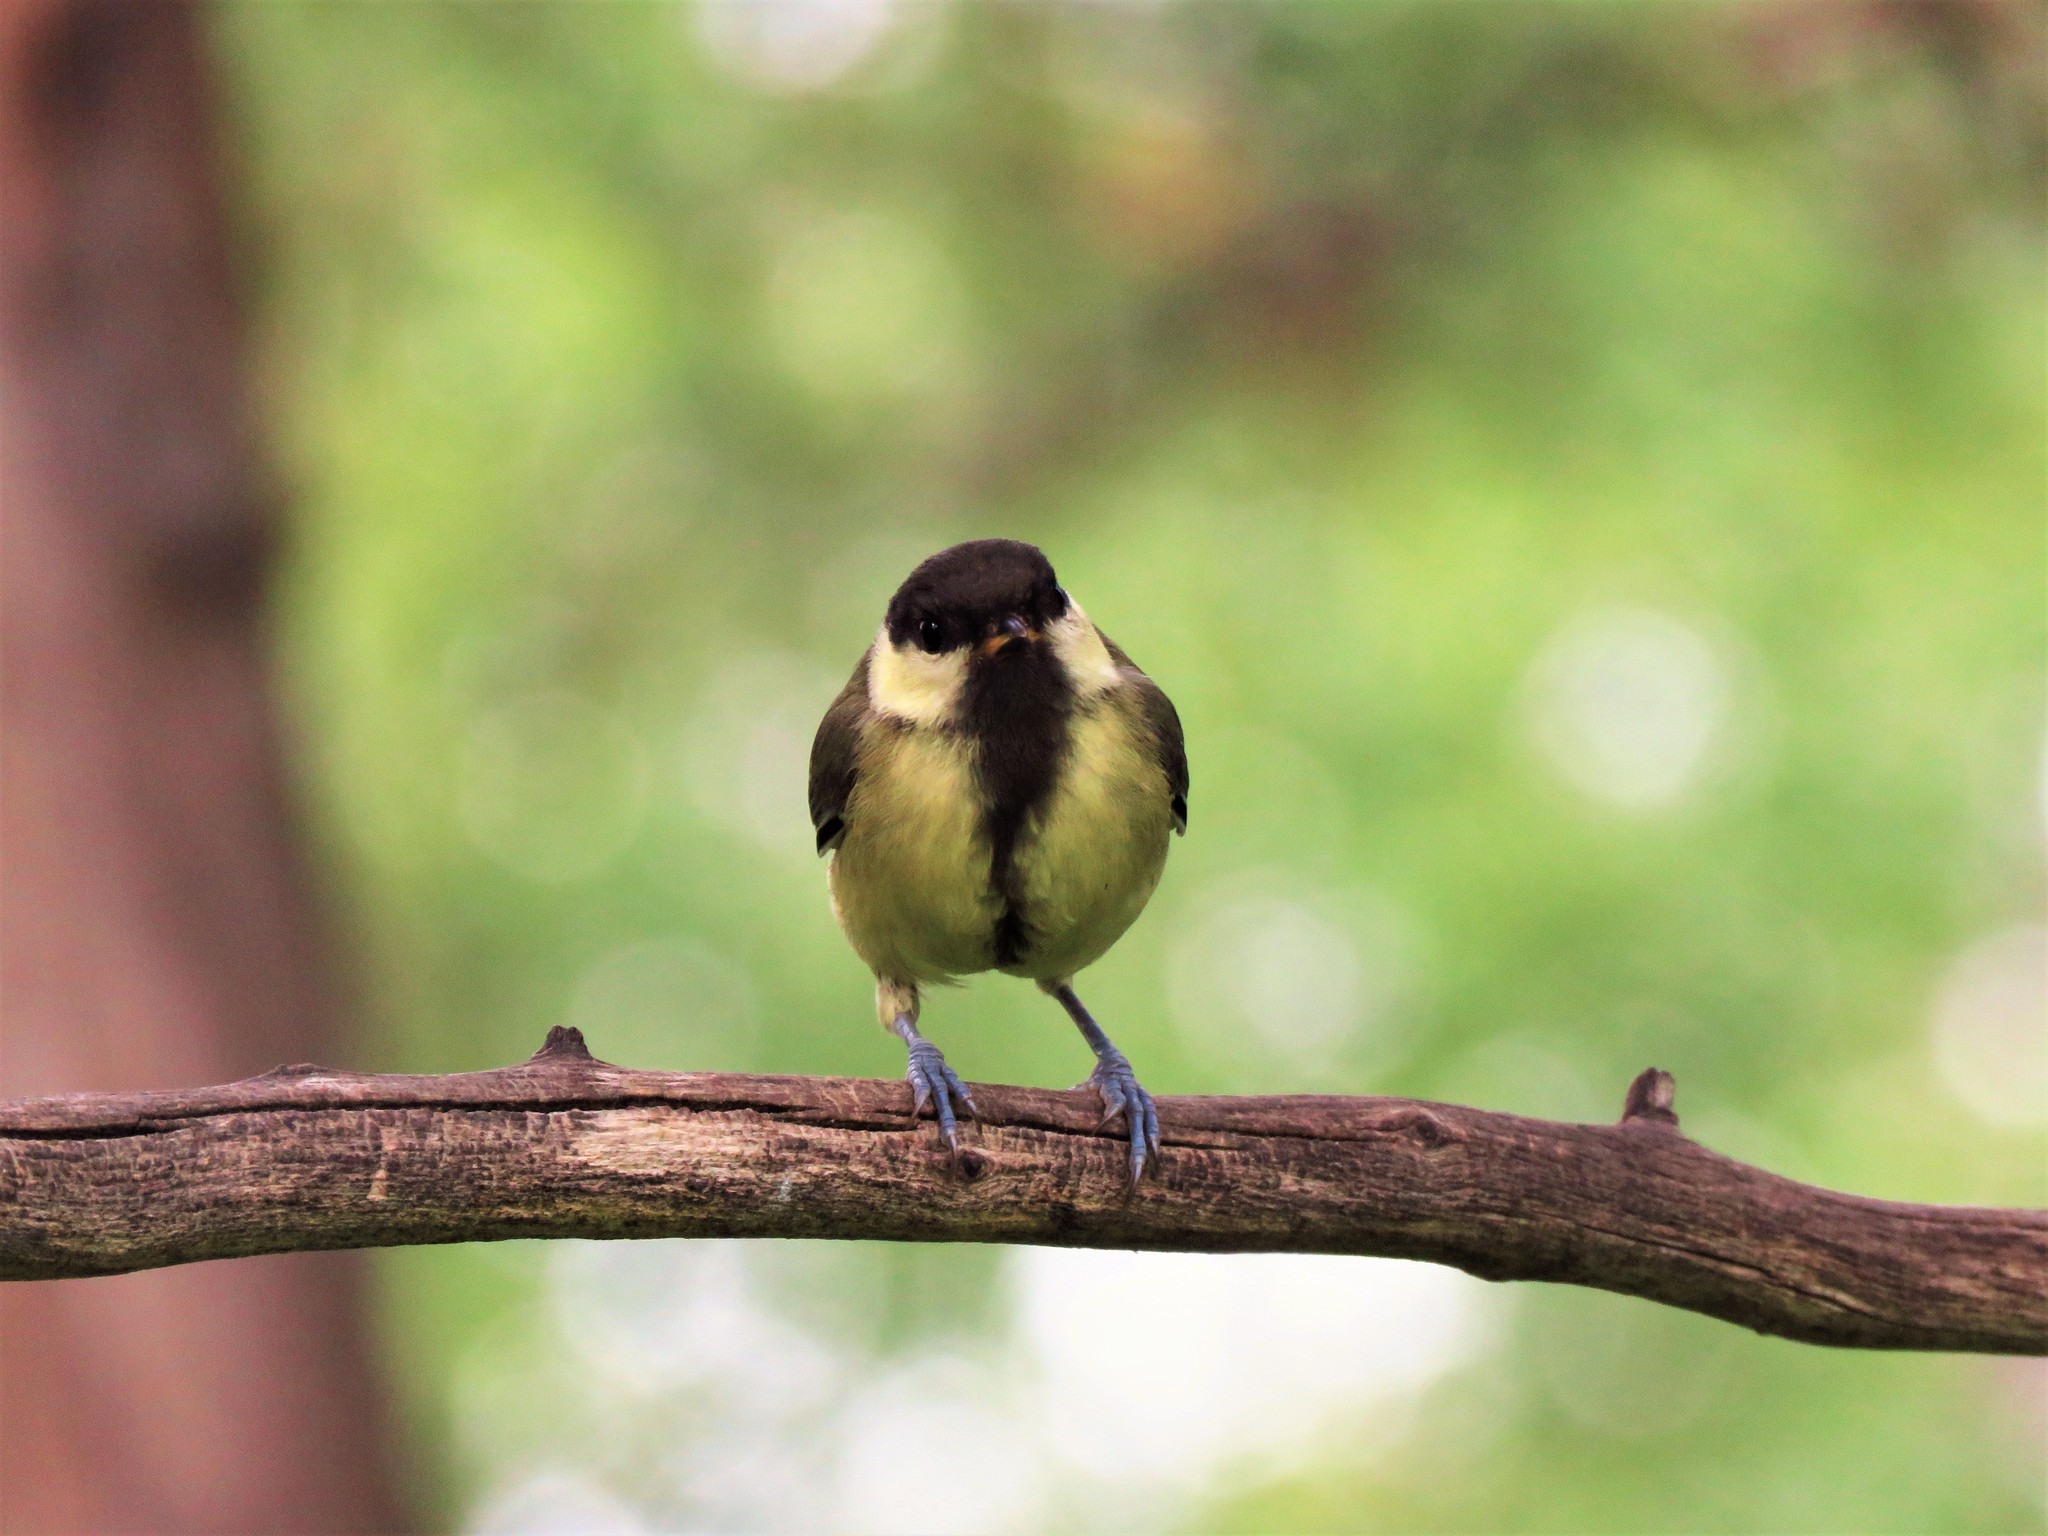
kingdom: Animalia
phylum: Chordata
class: Aves
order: Passeriformes
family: Paridae
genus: Parus
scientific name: Parus major
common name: Great tit
